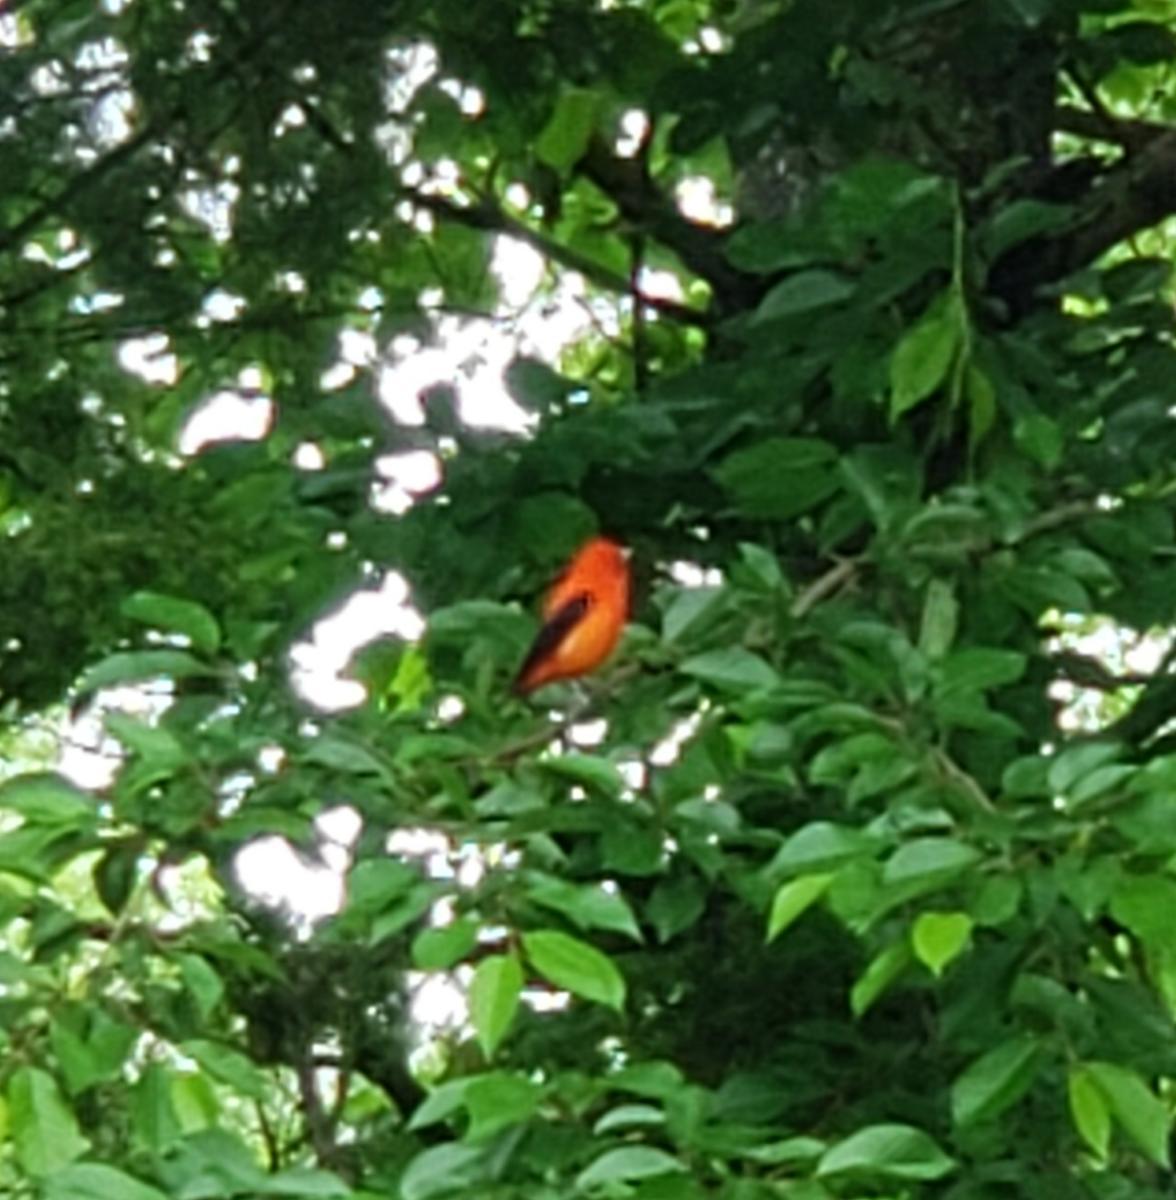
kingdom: Animalia
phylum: Chordata
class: Aves
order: Passeriformes
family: Cardinalidae
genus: Piranga
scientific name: Piranga olivacea
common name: Scarlet tanager
